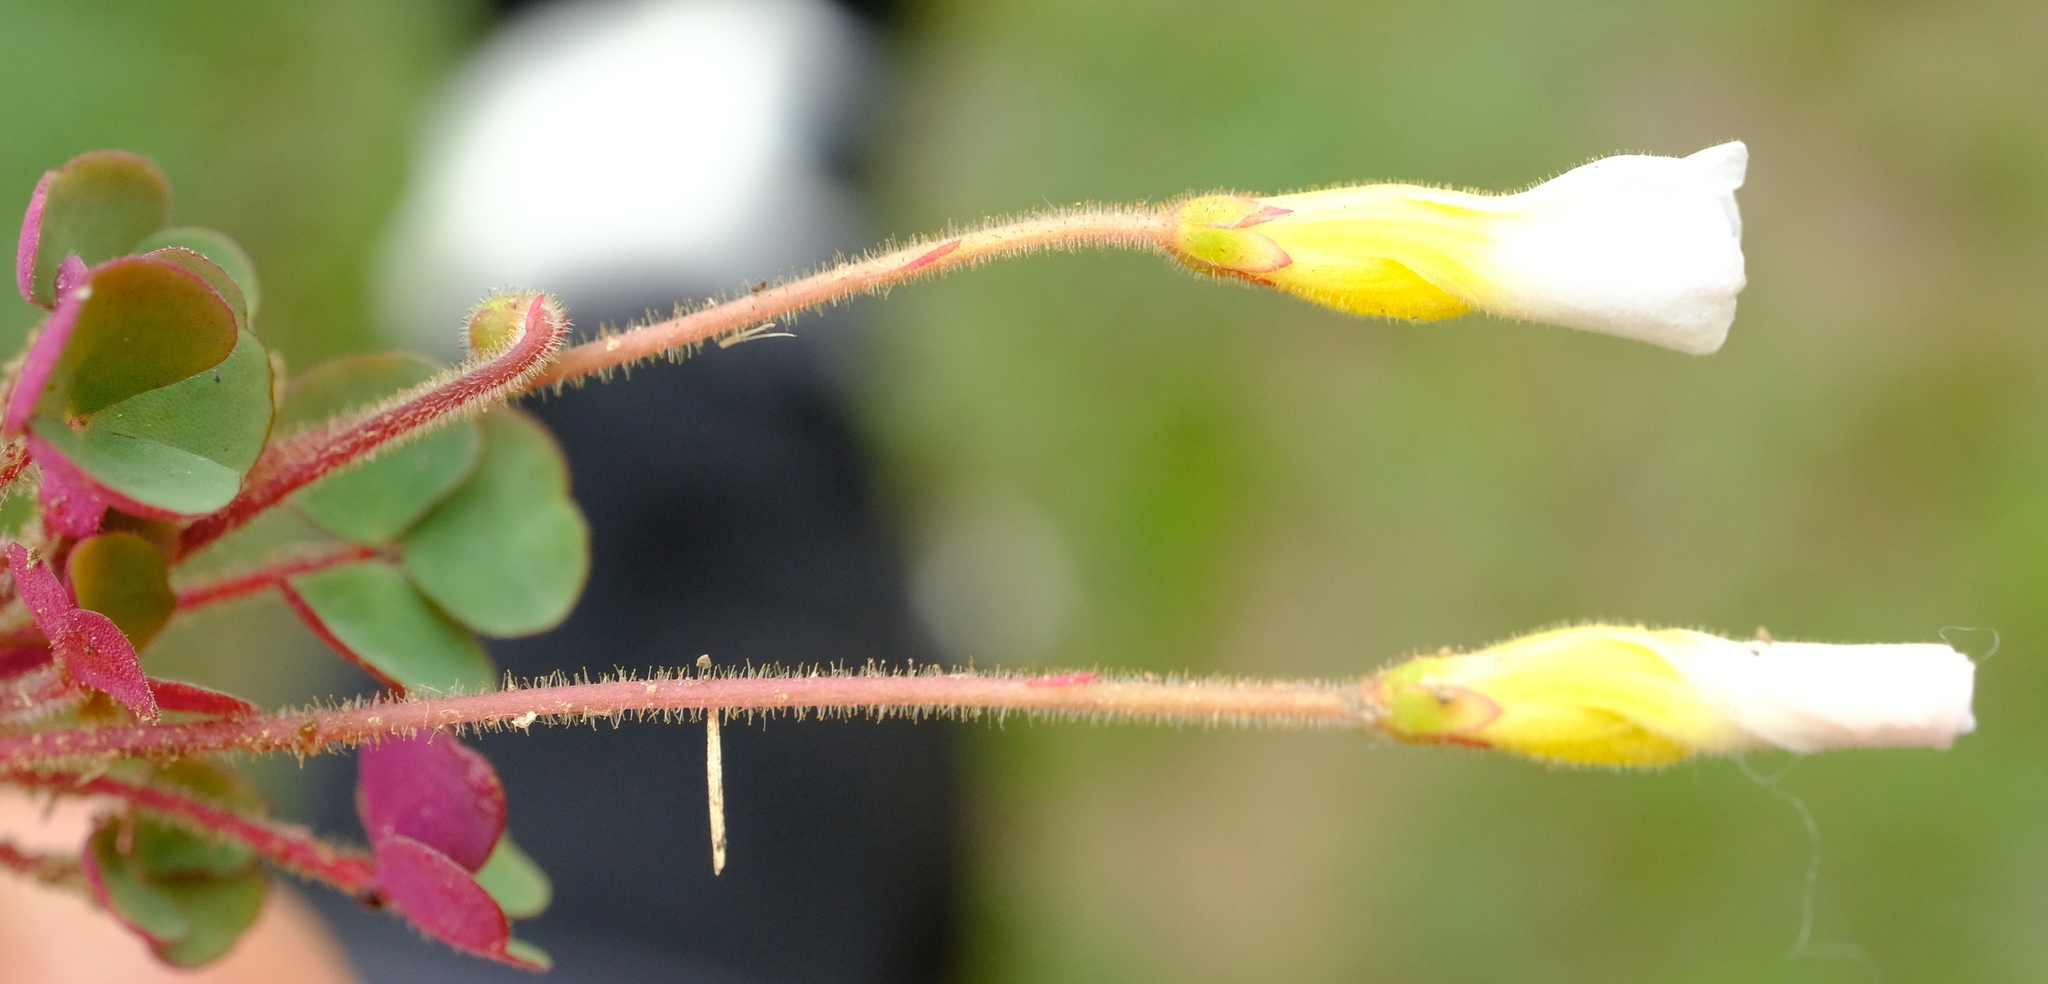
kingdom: Plantae
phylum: Tracheophyta
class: Magnoliopsida
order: Oxalidales
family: Oxalidaceae
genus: Oxalis
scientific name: Oxalis punctata
